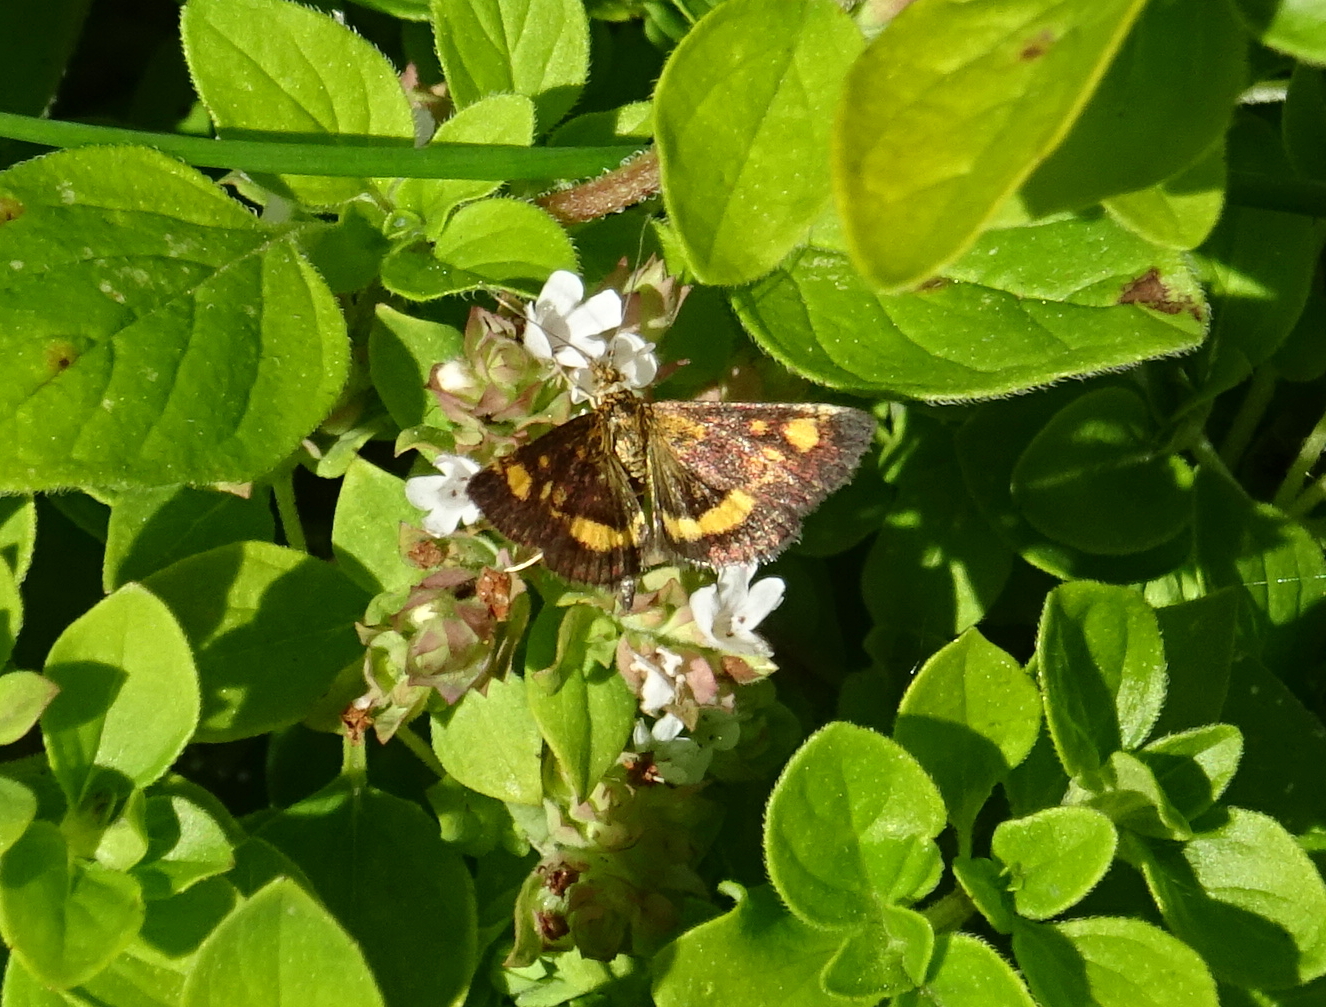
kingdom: Animalia
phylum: Arthropoda
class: Insecta
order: Lepidoptera
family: Crambidae
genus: Pyrausta
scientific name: Pyrausta aurata
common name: Small purple & gold
